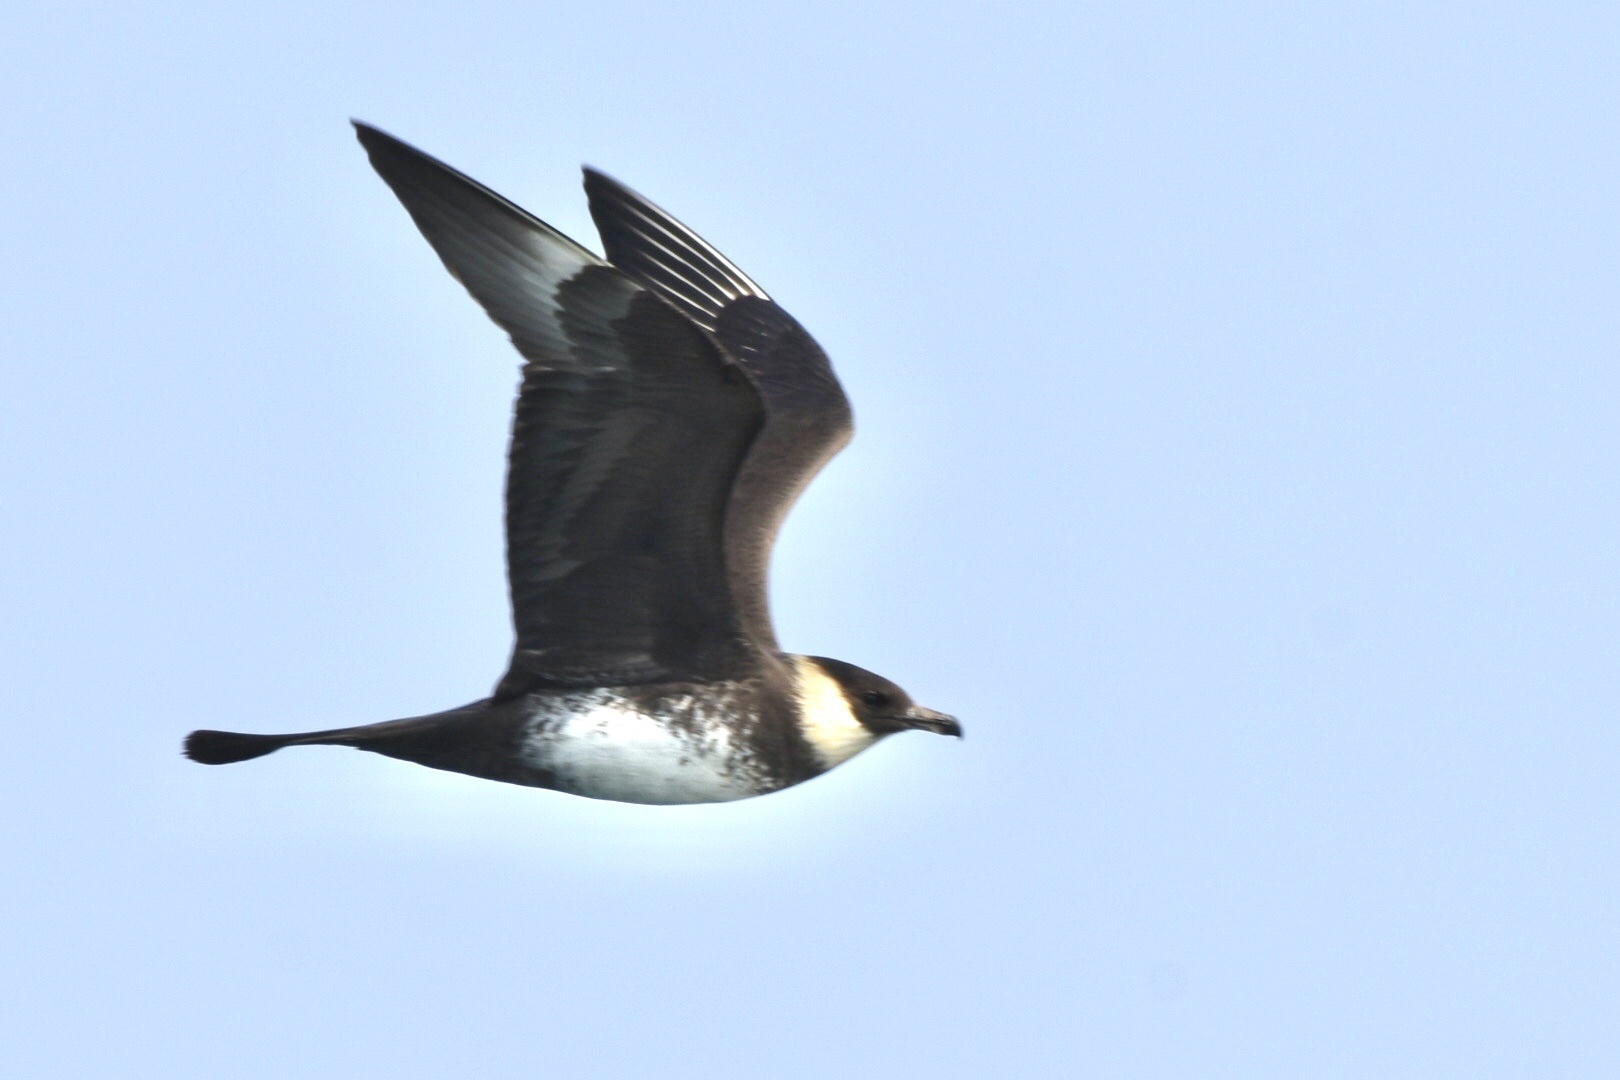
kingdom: Animalia
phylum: Chordata
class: Aves
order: Charadriiformes
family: Stercorariidae
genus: Stercorarius
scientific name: Stercorarius pomarinus
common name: Pomarine jaeger
